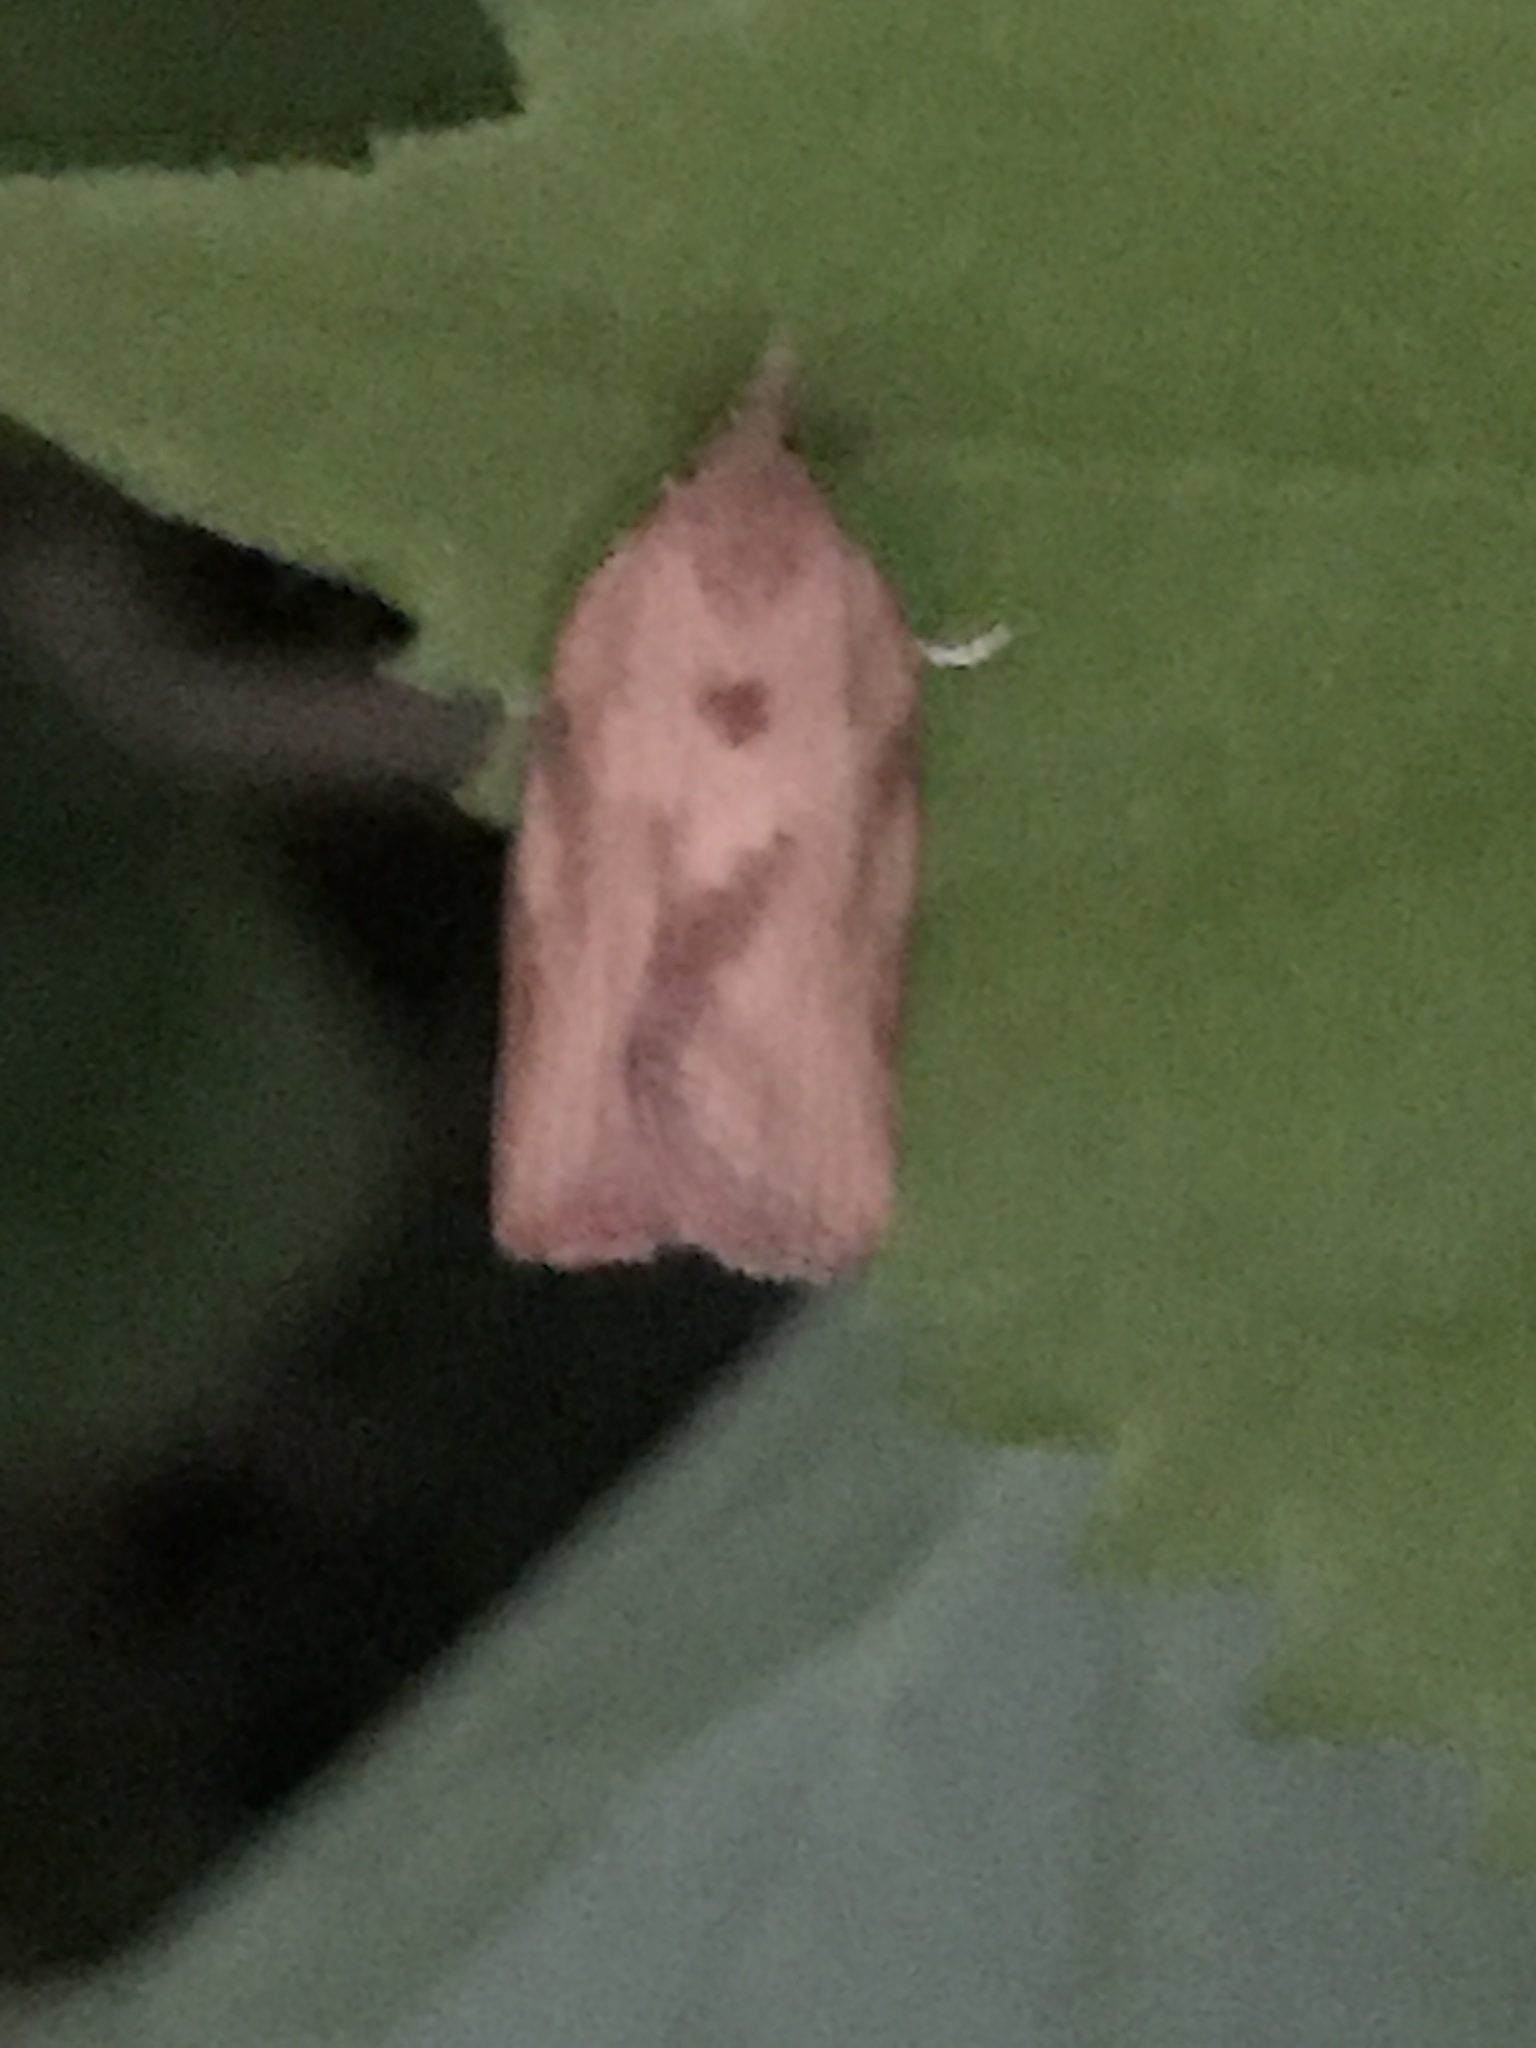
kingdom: Animalia
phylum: Arthropoda
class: Insecta
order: Lepidoptera
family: Tortricidae
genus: Epiphyas
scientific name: Epiphyas postvittana
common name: Light brown apple moth
